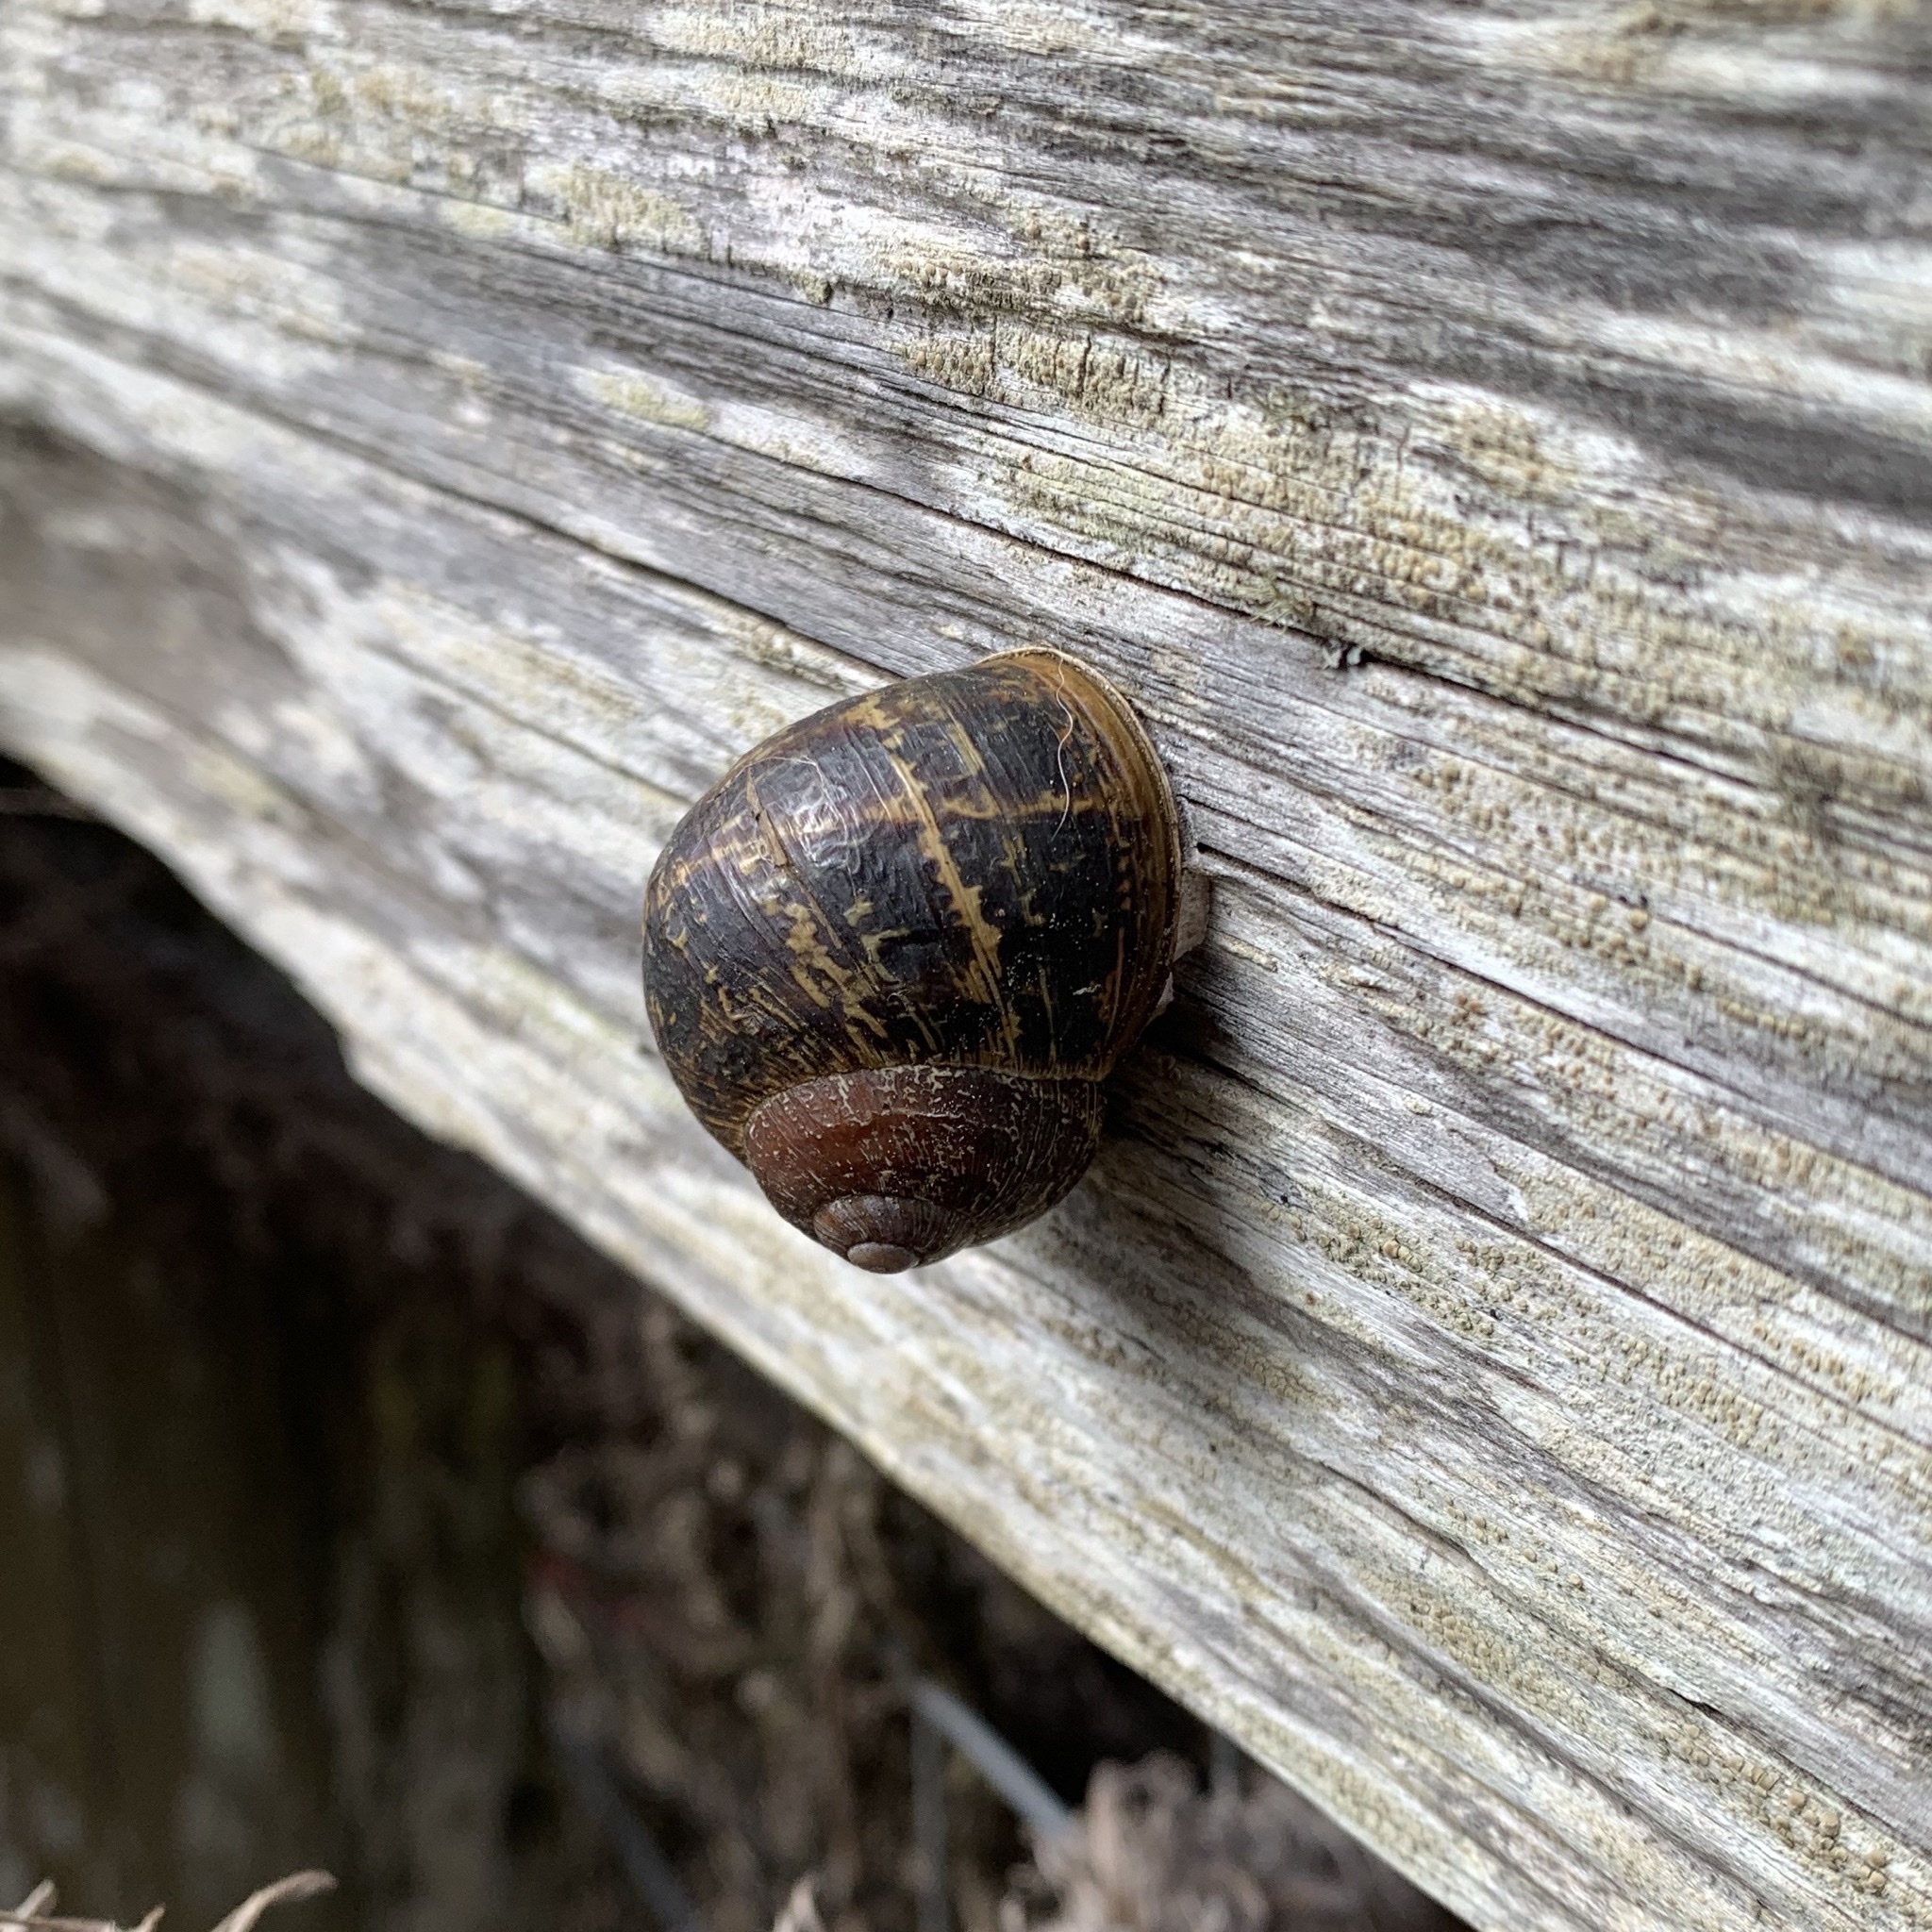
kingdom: Animalia
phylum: Mollusca
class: Gastropoda
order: Stylommatophora
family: Helicidae
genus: Cornu
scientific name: Cornu aspersum
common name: Brown garden snail
